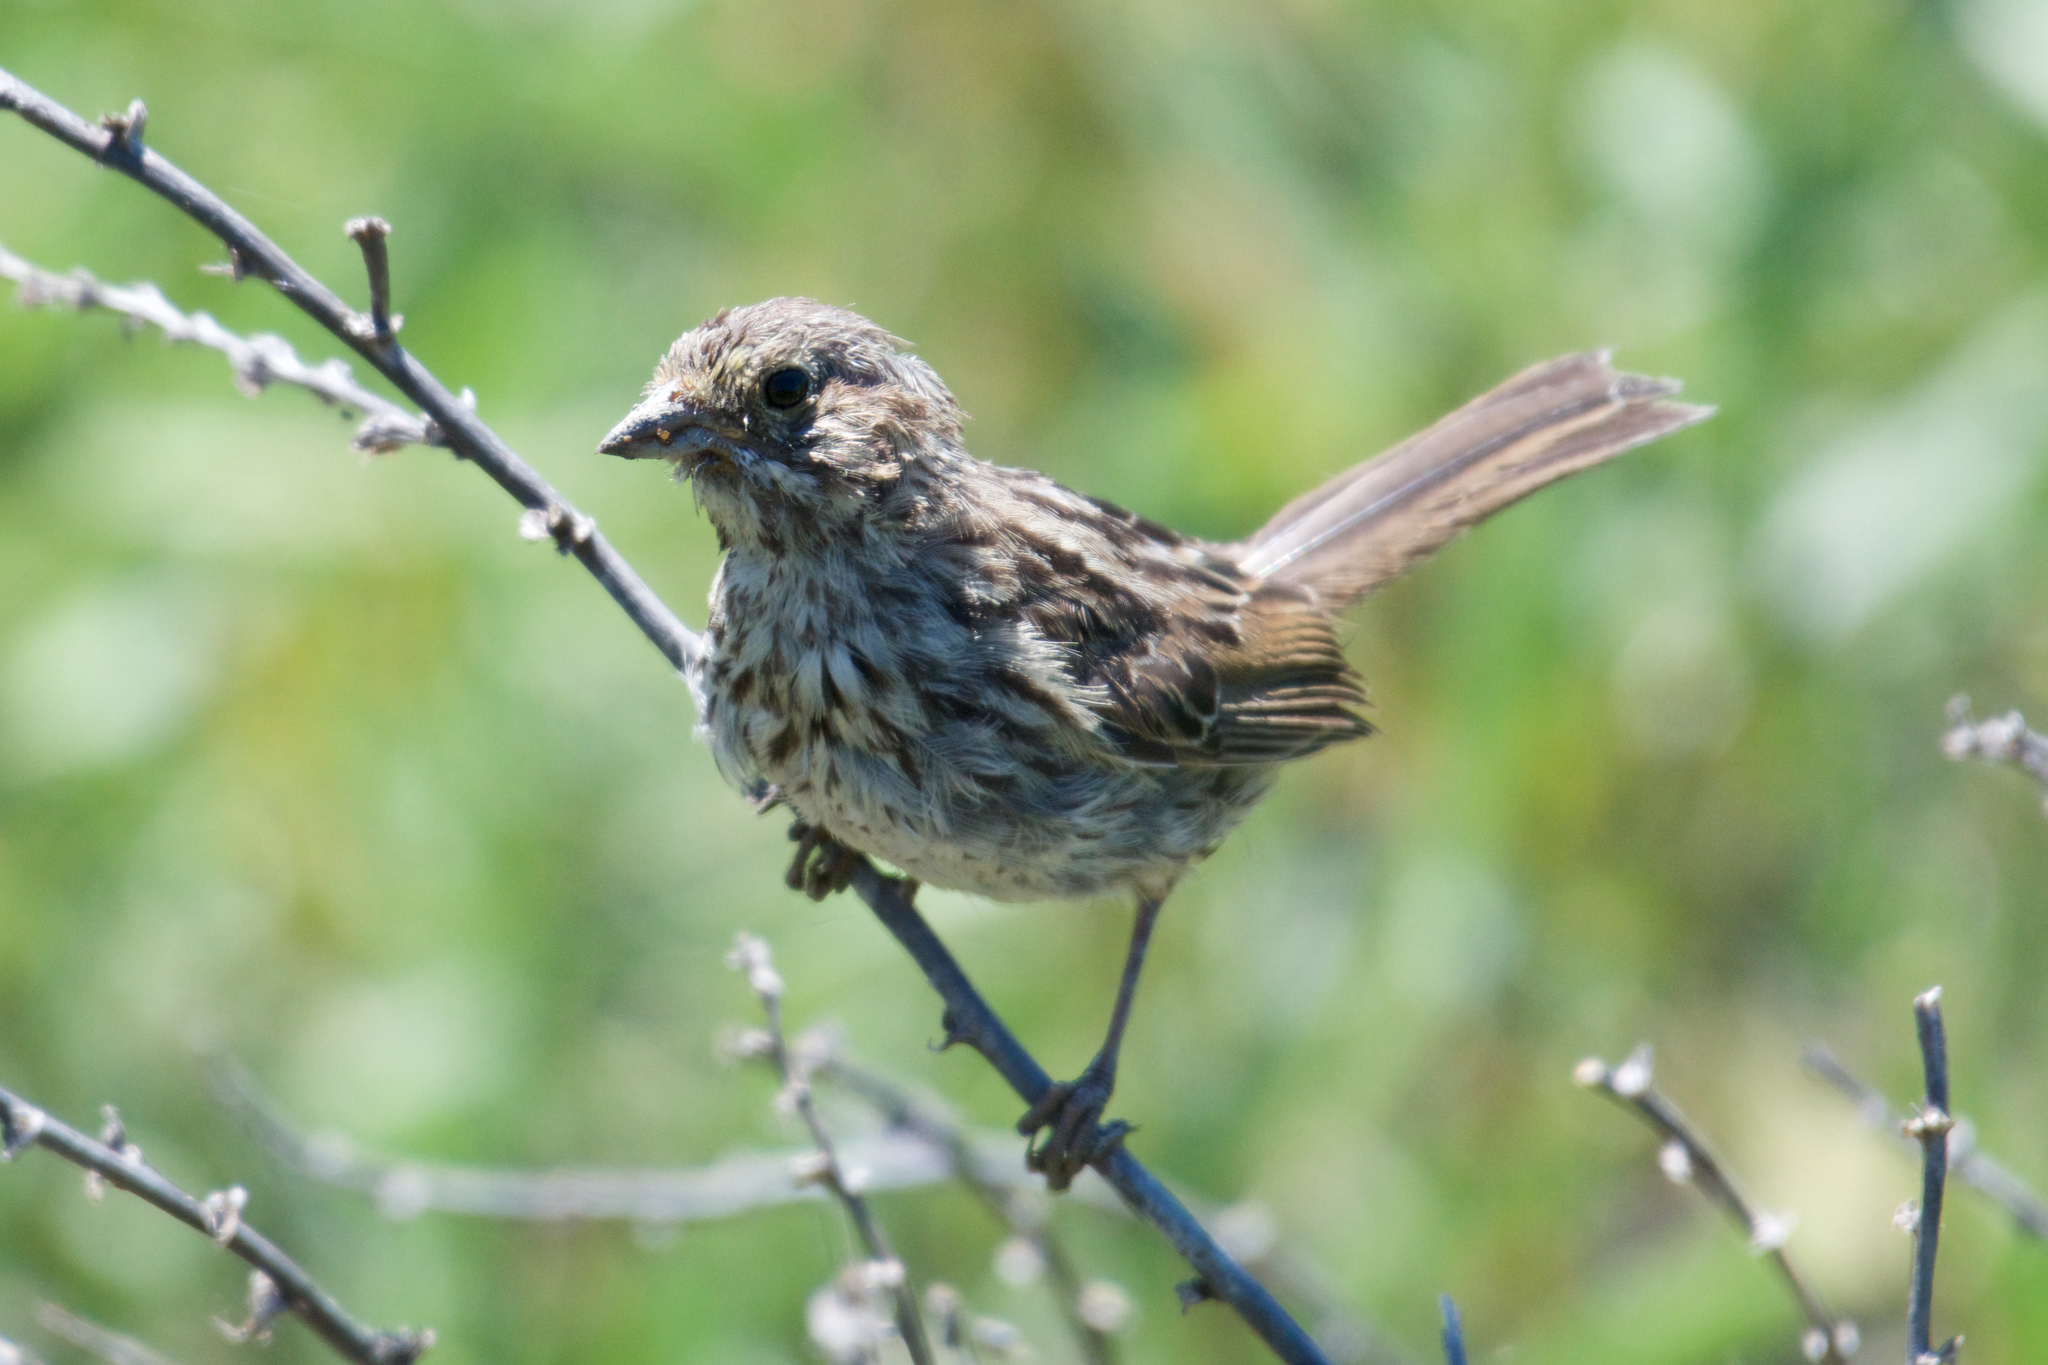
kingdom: Animalia
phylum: Chordata
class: Aves
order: Passeriformes
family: Passerellidae
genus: Melospiza
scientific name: Melospiza melodia
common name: Song sparrow
